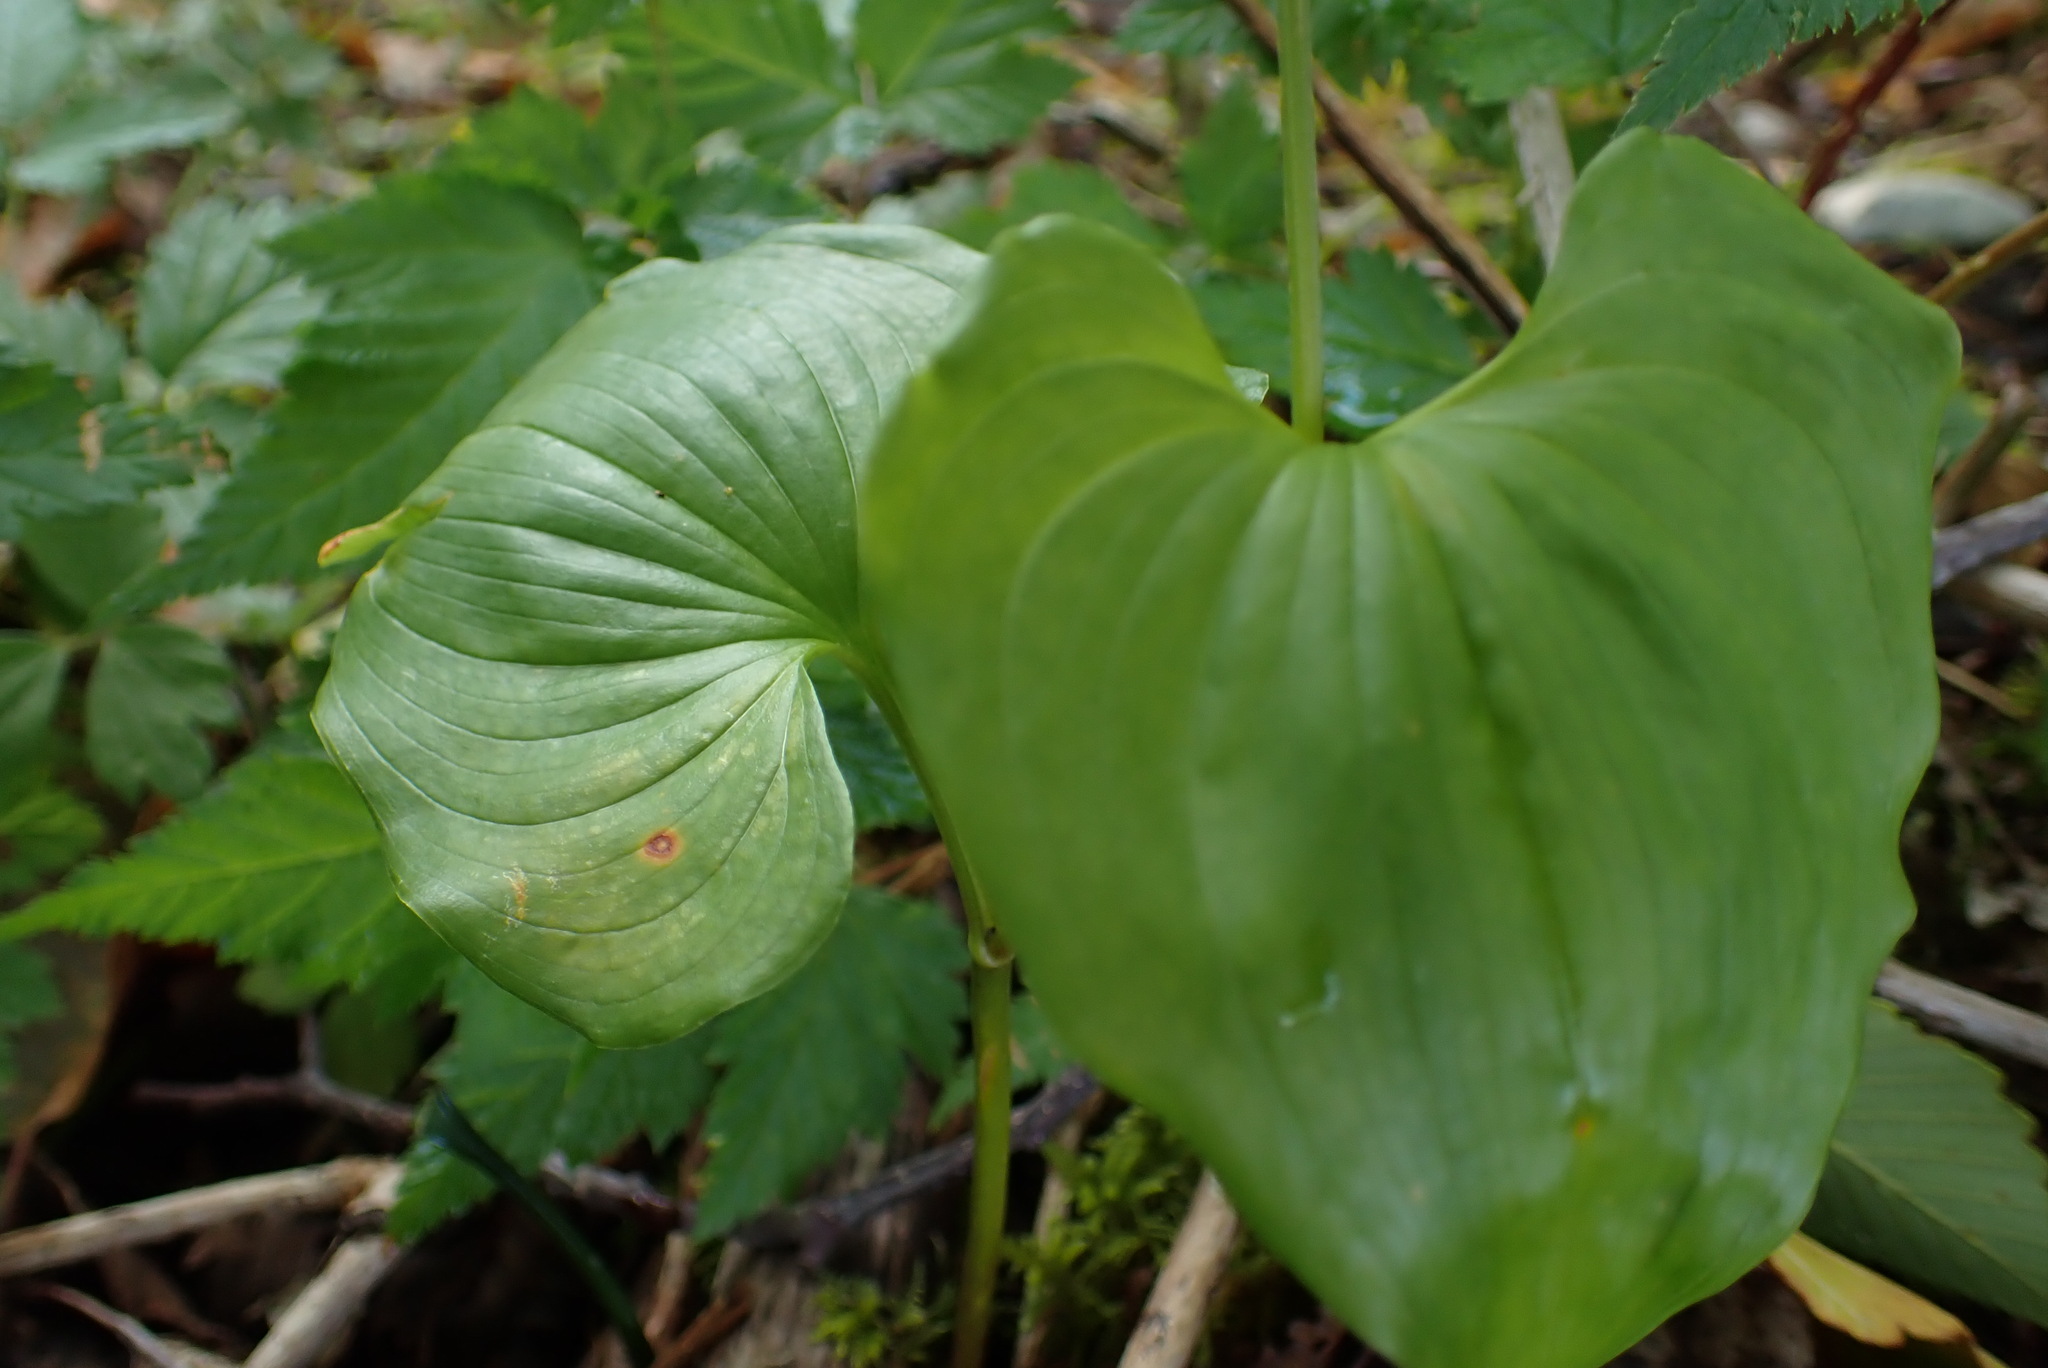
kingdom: Plantae
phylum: Tracheophyta
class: Liliopsida
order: Asparagales
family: Asparagaceae
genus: Maianthemum
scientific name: Maianthemum dilatatum
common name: False lily-of-the-valley
